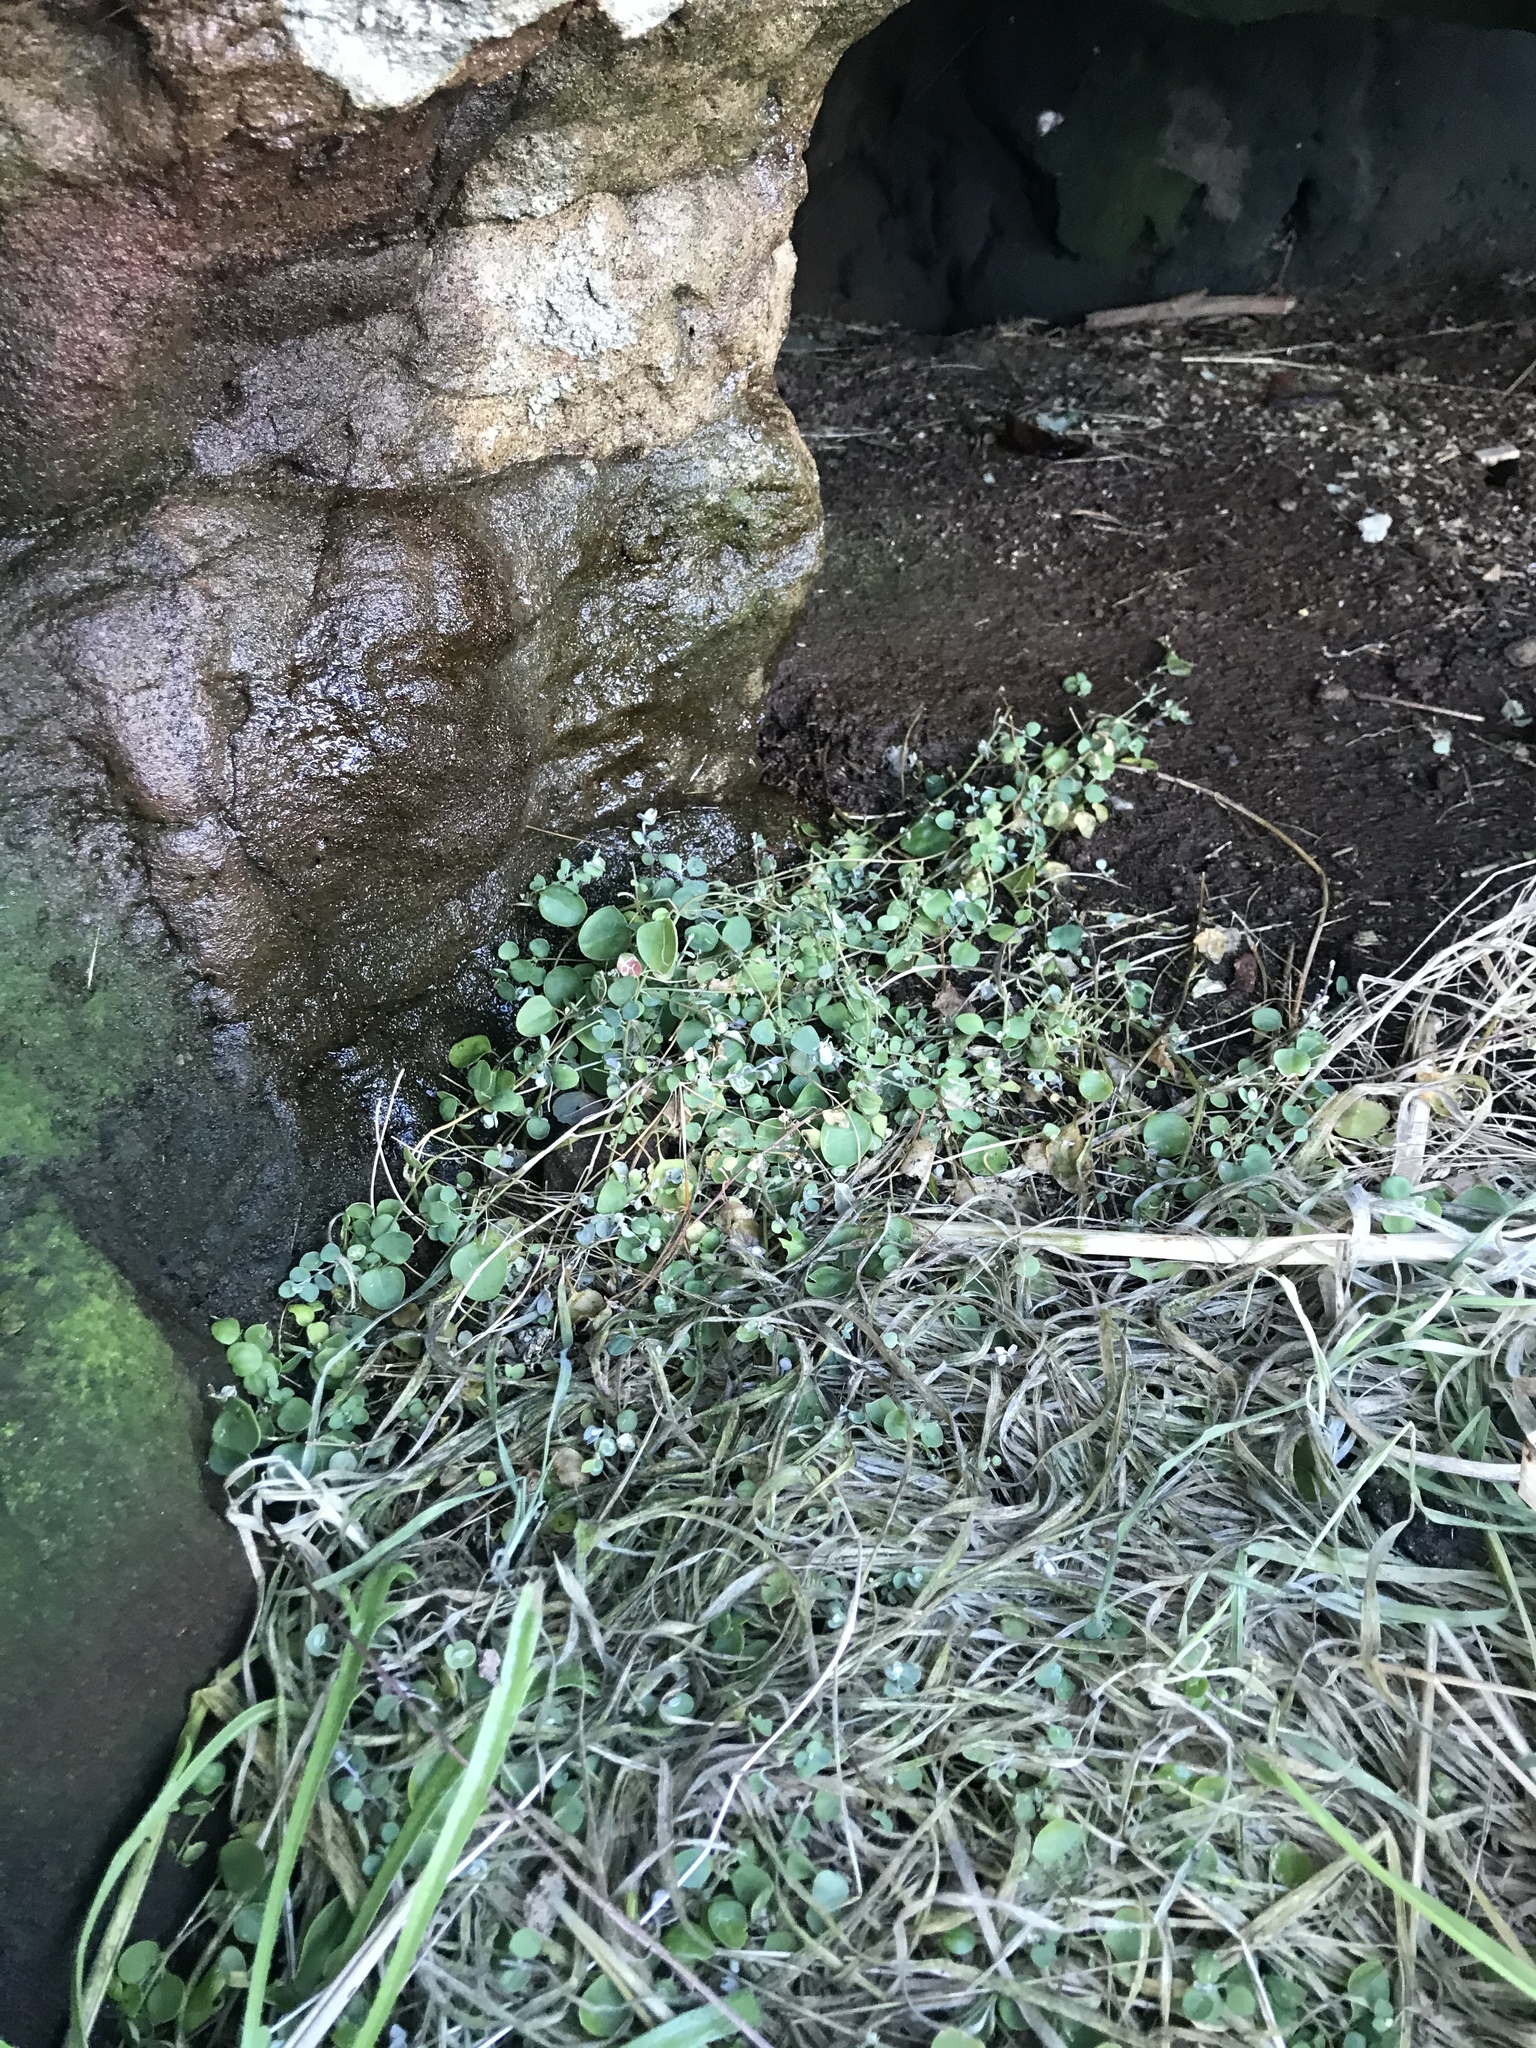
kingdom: Plantae
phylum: Tracheophyta
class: Magnoliopsida
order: Caryophyllales
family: Amaranthaceae
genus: Chenopodium
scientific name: Chenopodium trigonon
